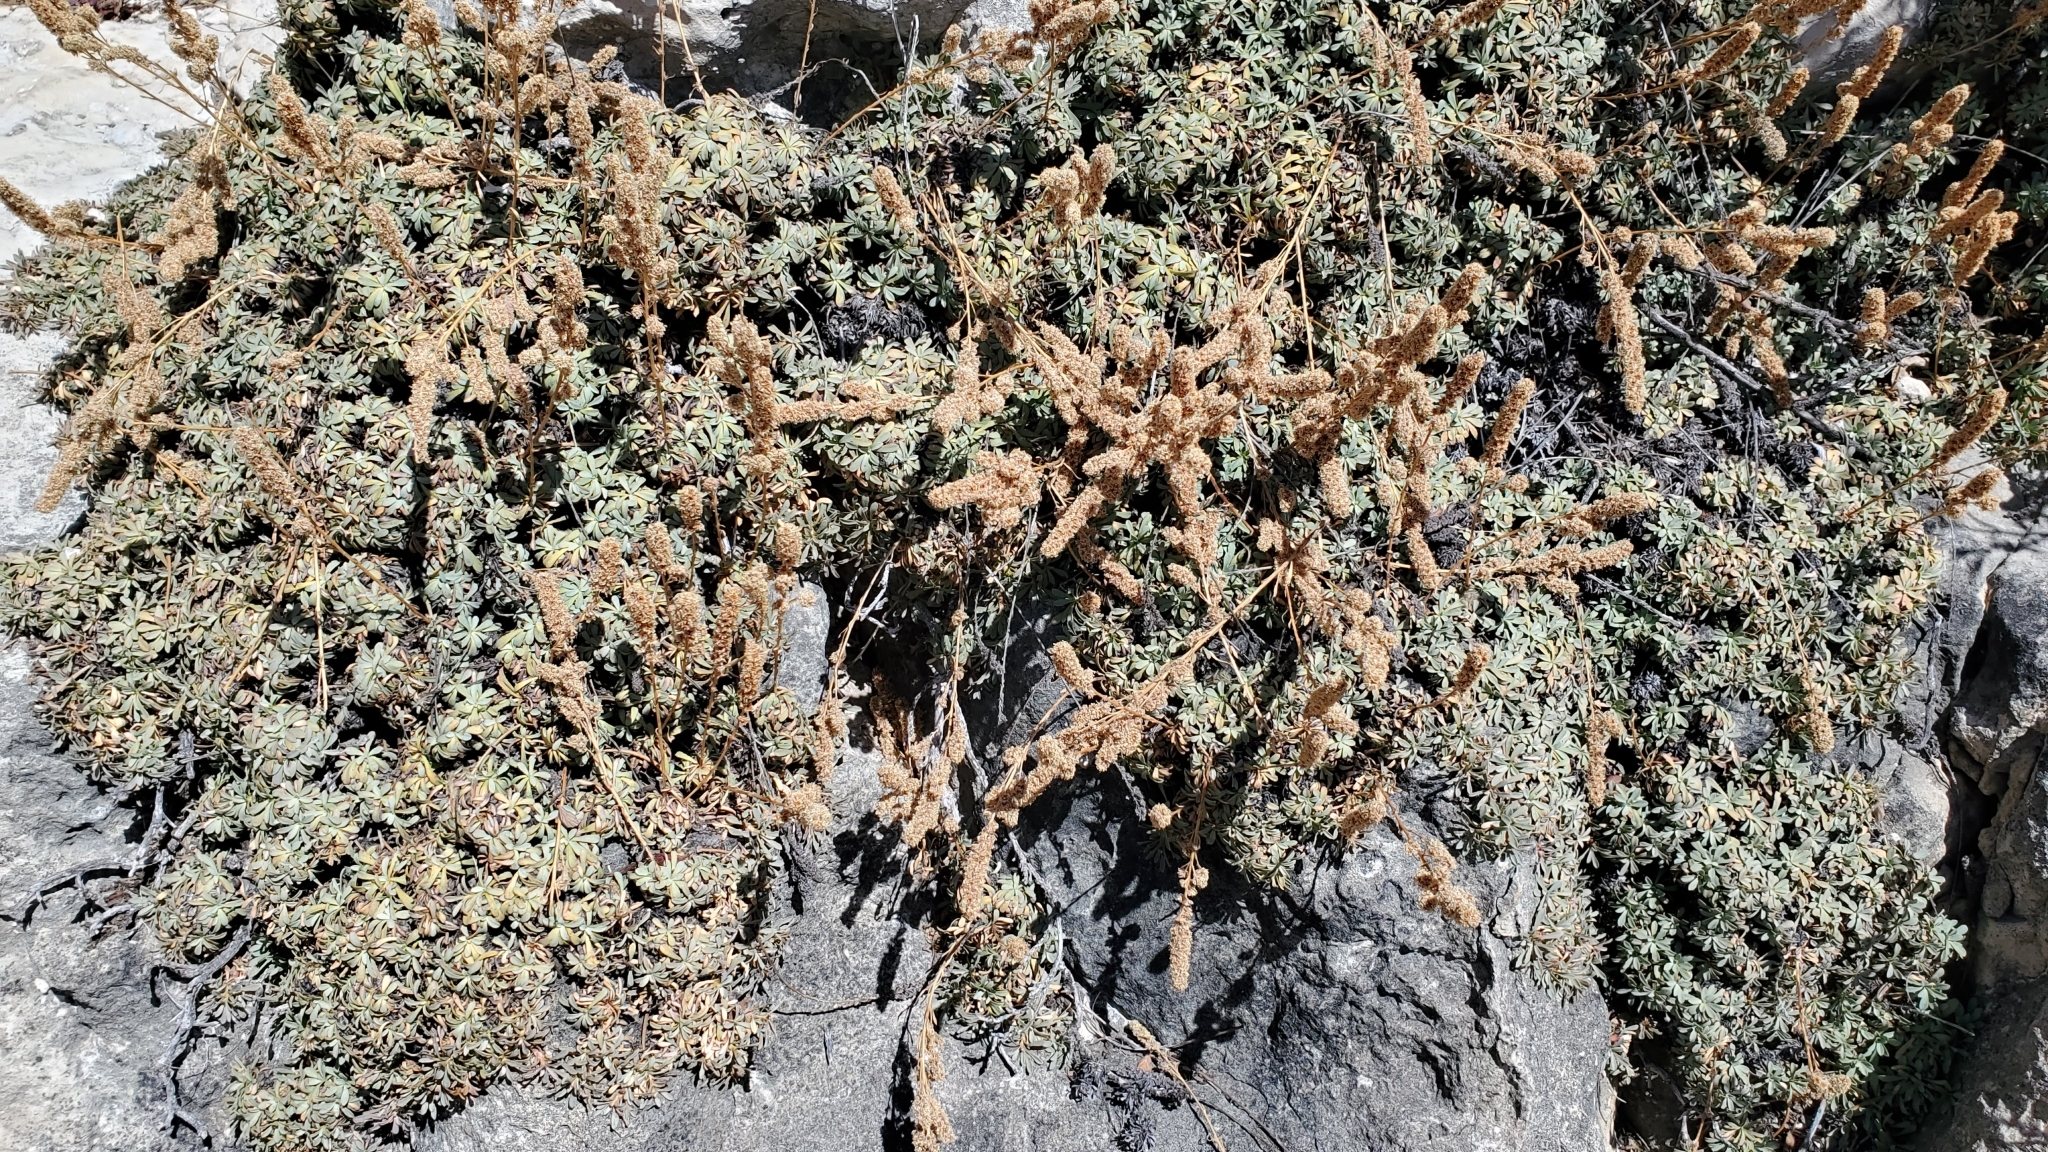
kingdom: Plantae
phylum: Tracheophyta
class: Magnoliopsida
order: Rosales
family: Rosaceae
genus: Petrophytum
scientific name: Petrophytum caespitosum
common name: Mat rockspirea
